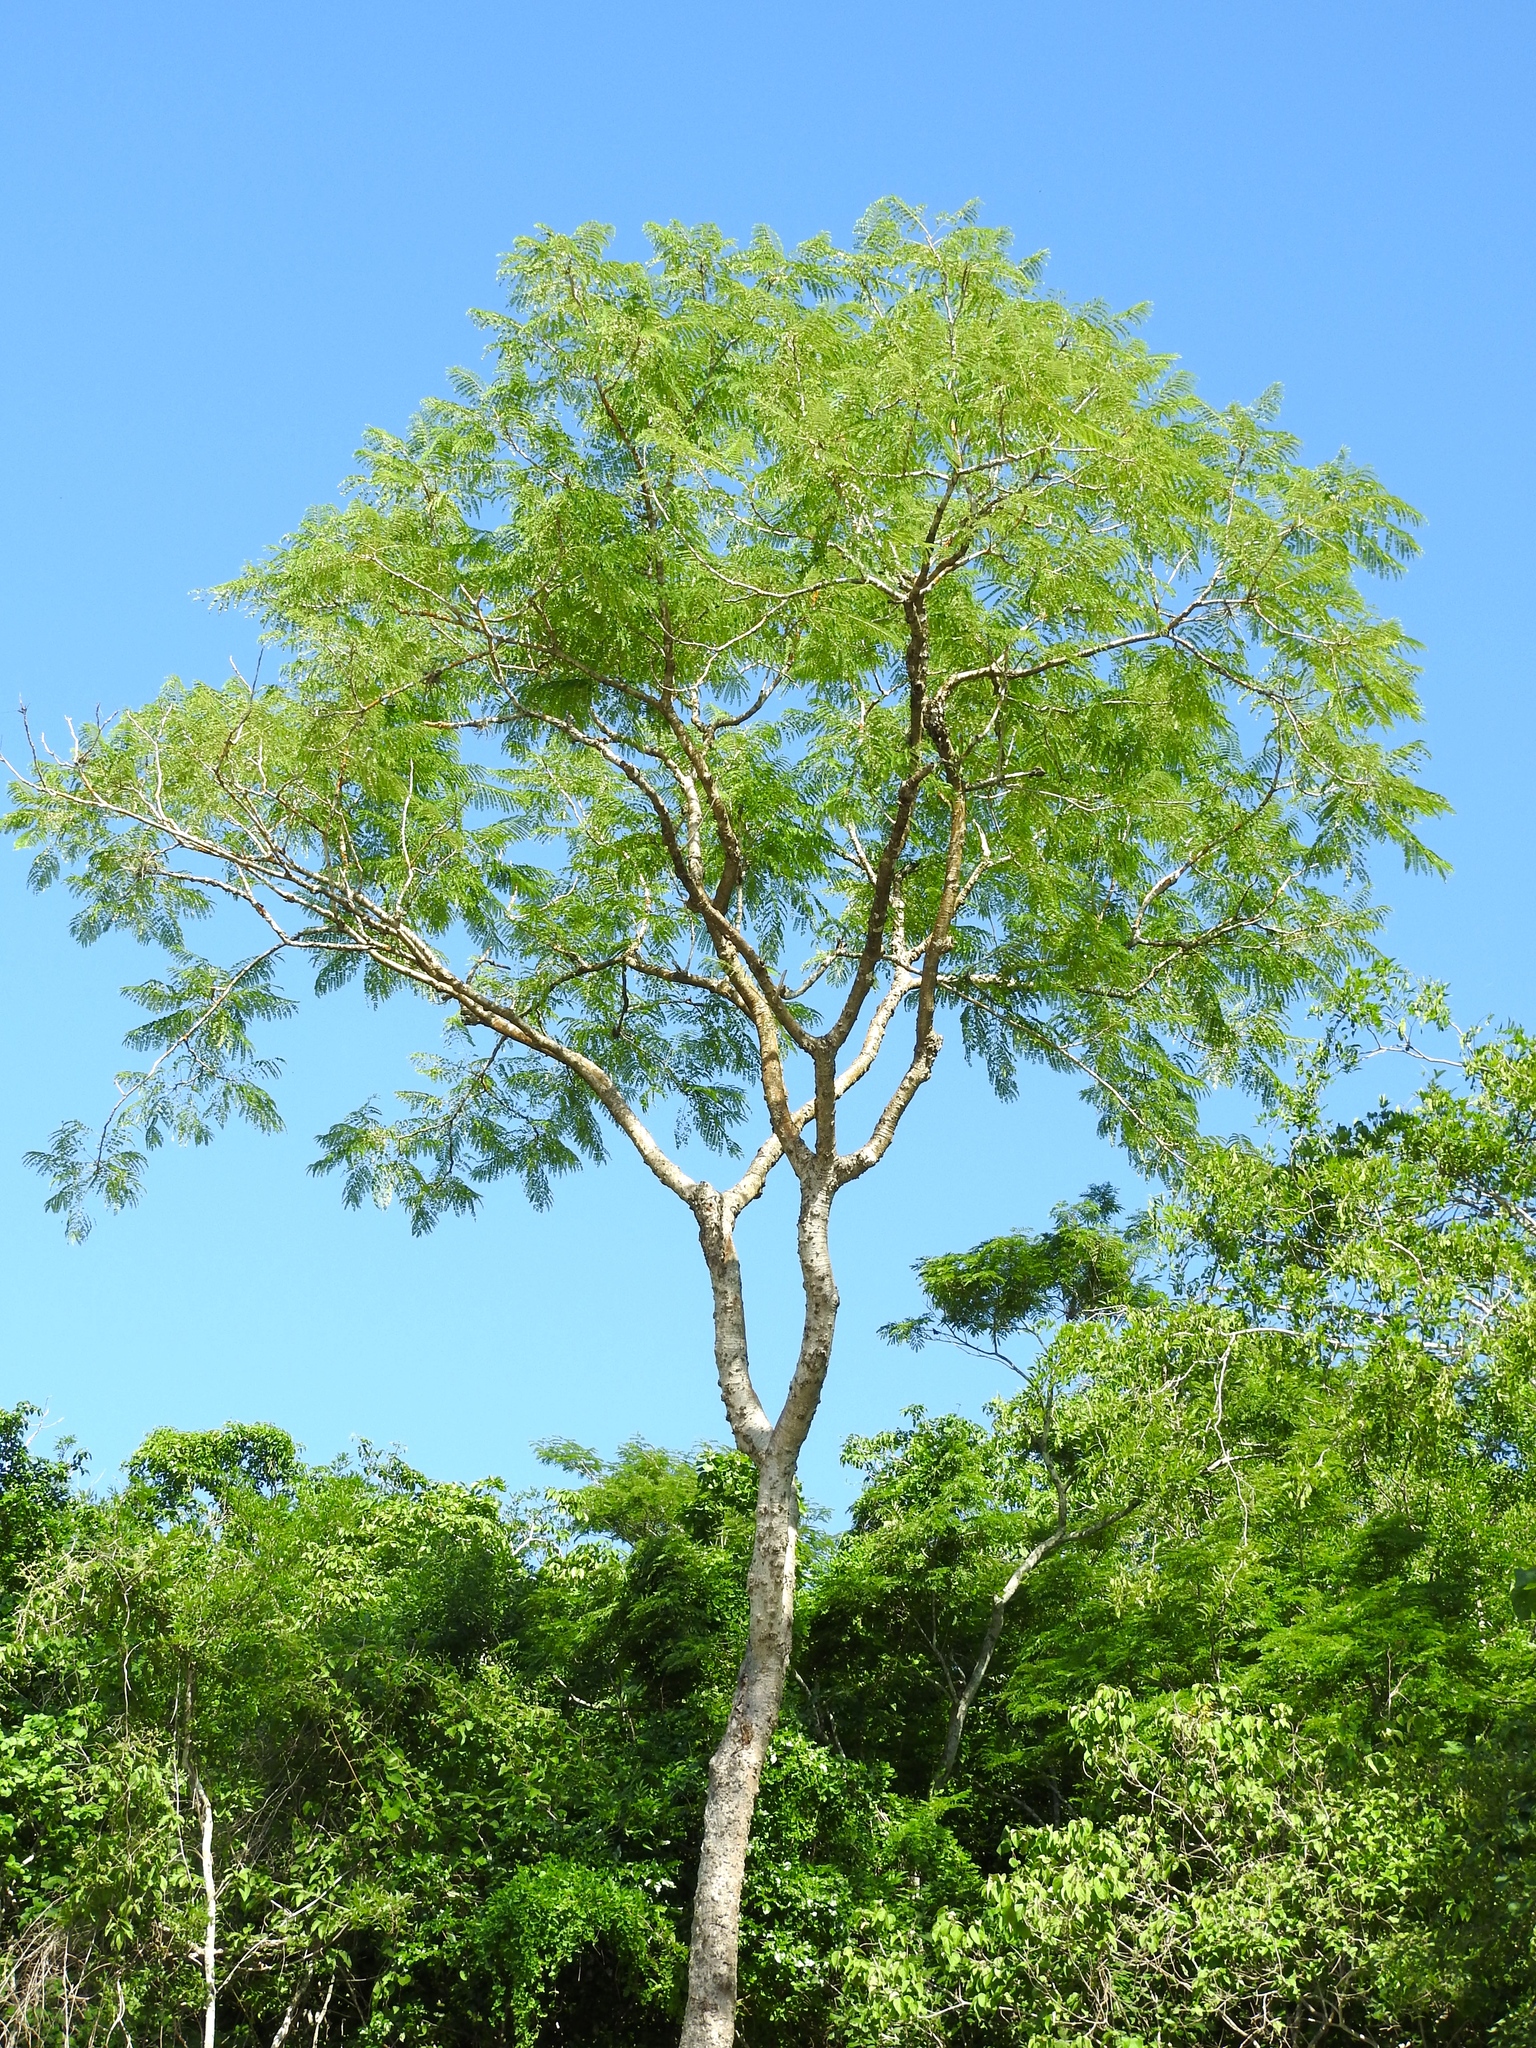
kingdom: Plantae
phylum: Tracheophyta
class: Magnoliopsida
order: Fabales
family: Fabaceae
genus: Conzattia
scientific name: Conzattia sericea
